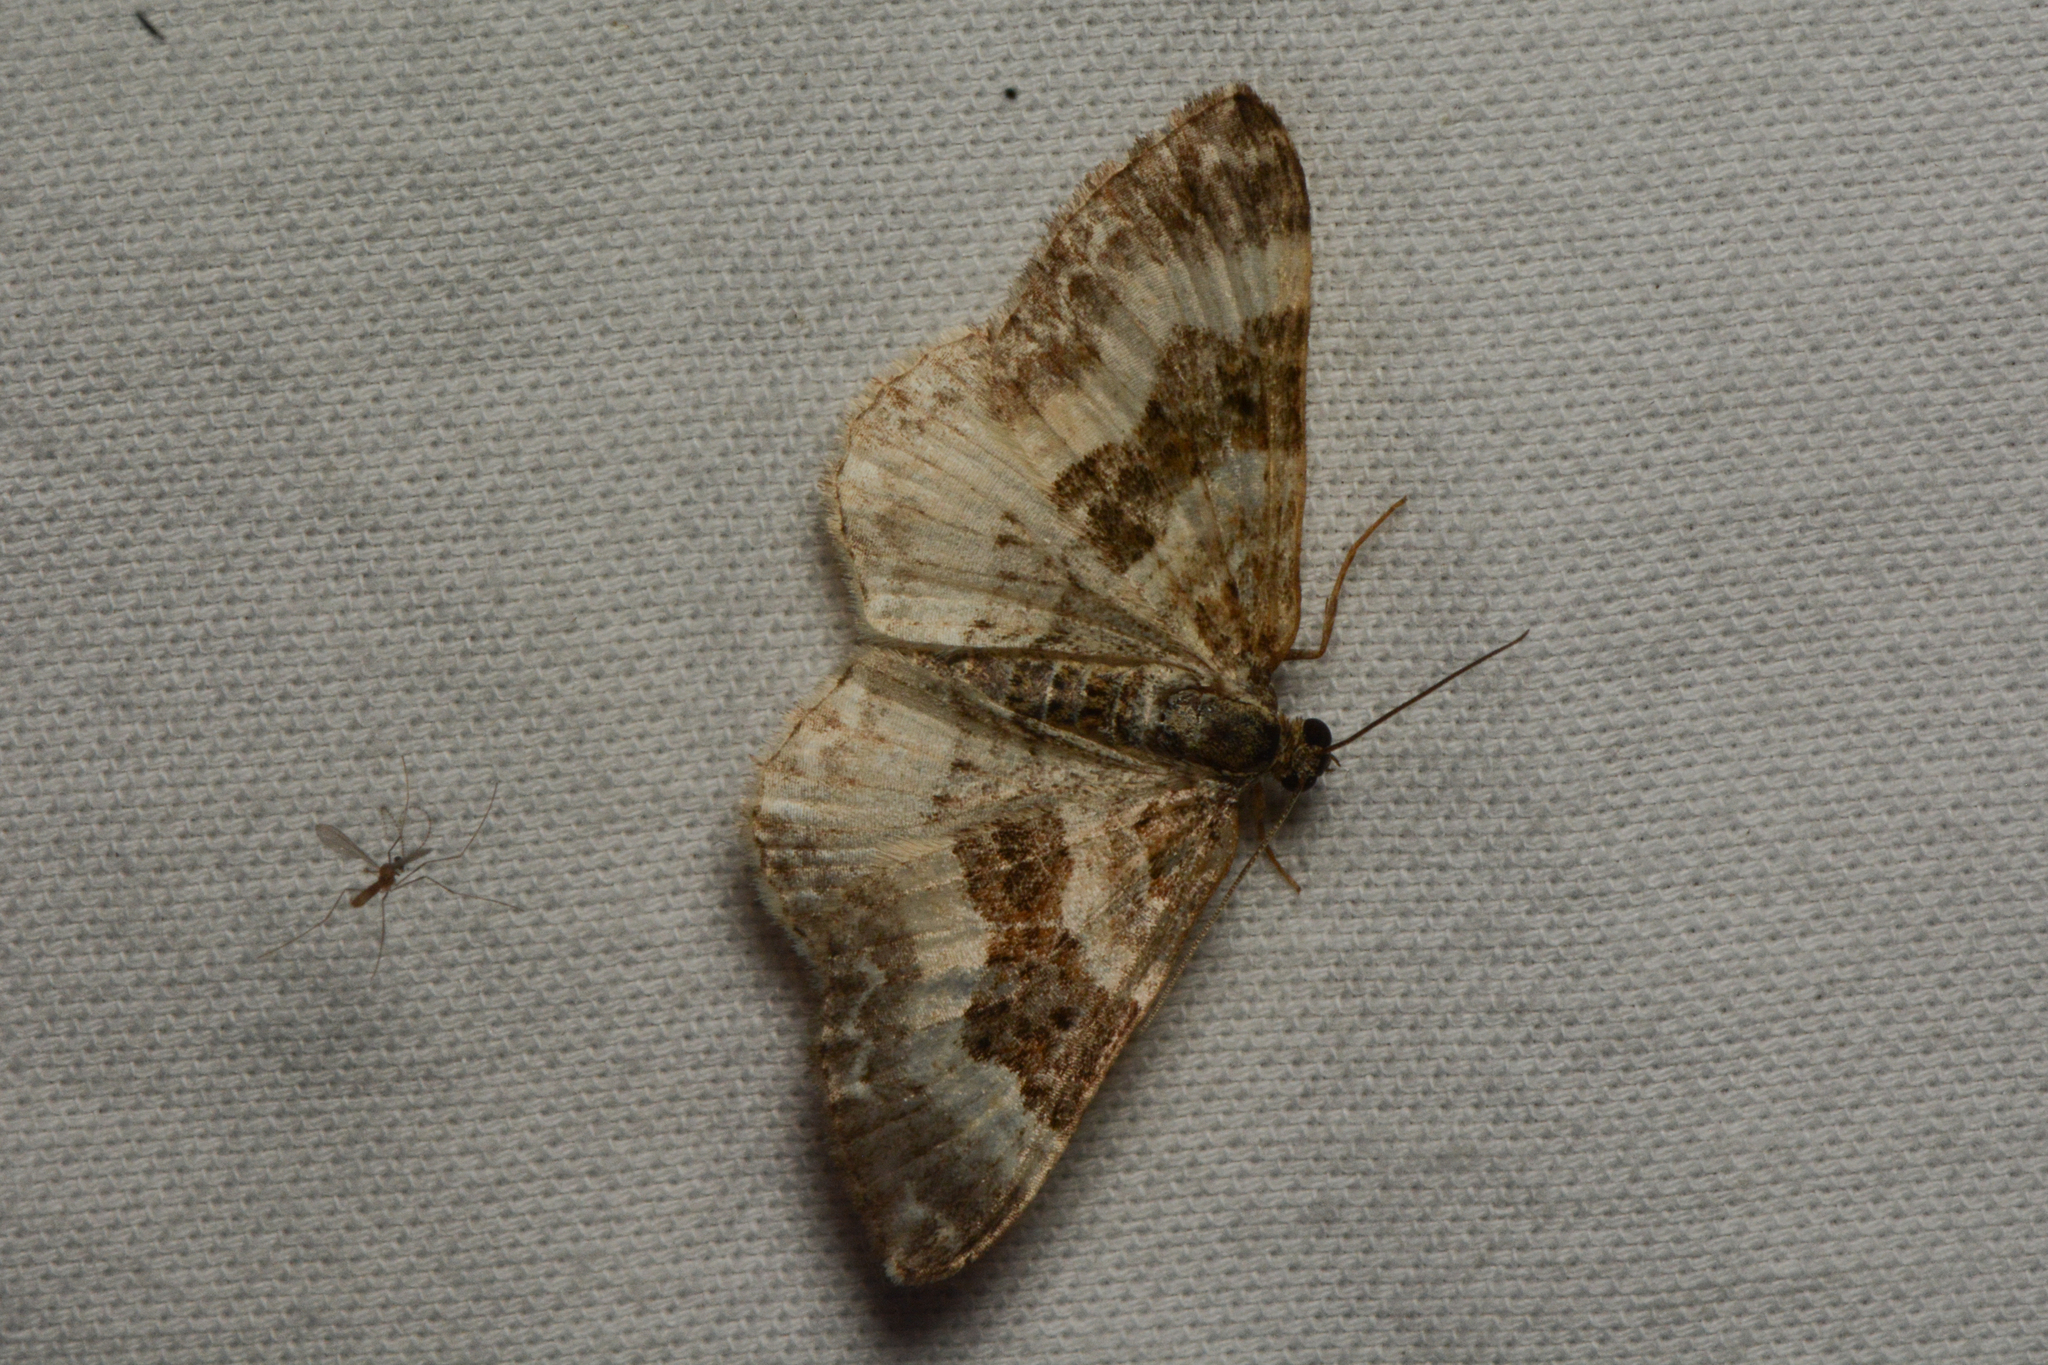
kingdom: Animalia
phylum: Arthropoda
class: Insecta
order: Lepidoptera
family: Geometridae
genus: Epirrhoe
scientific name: Epirrhoe alternata
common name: Common carpet
